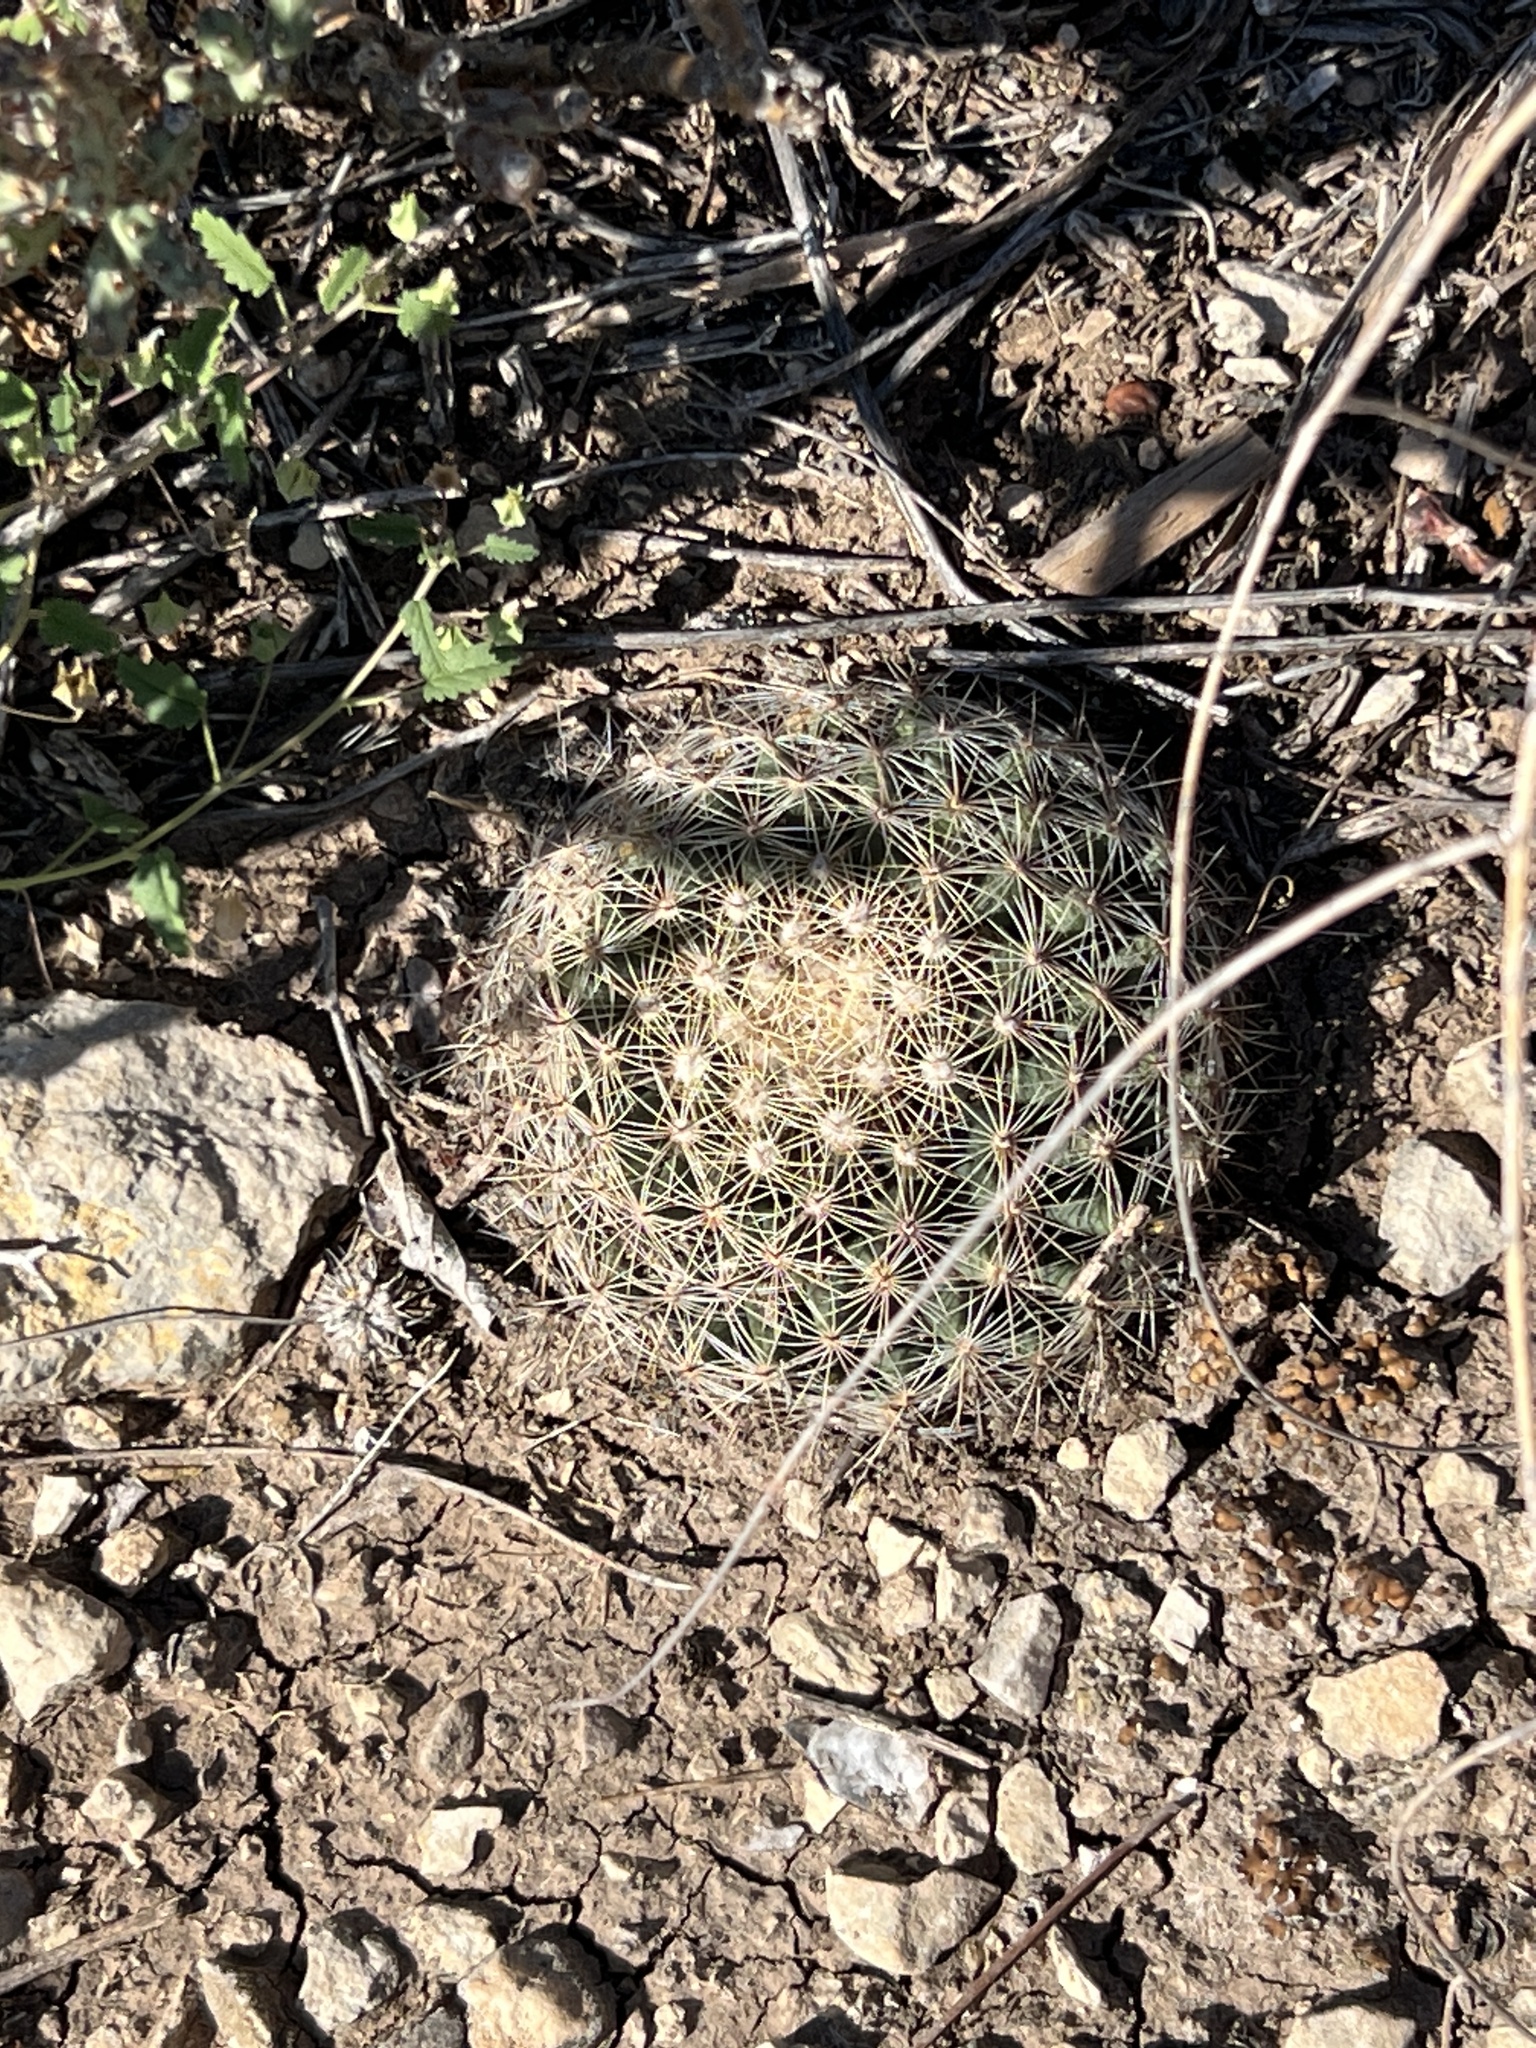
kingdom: Plantae
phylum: Tracheophyta
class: Magnoliopsida
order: Caryophyllales
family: Cactaceae
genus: Mammillaria
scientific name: Mammillaria heyderi
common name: Little nipple cactus
